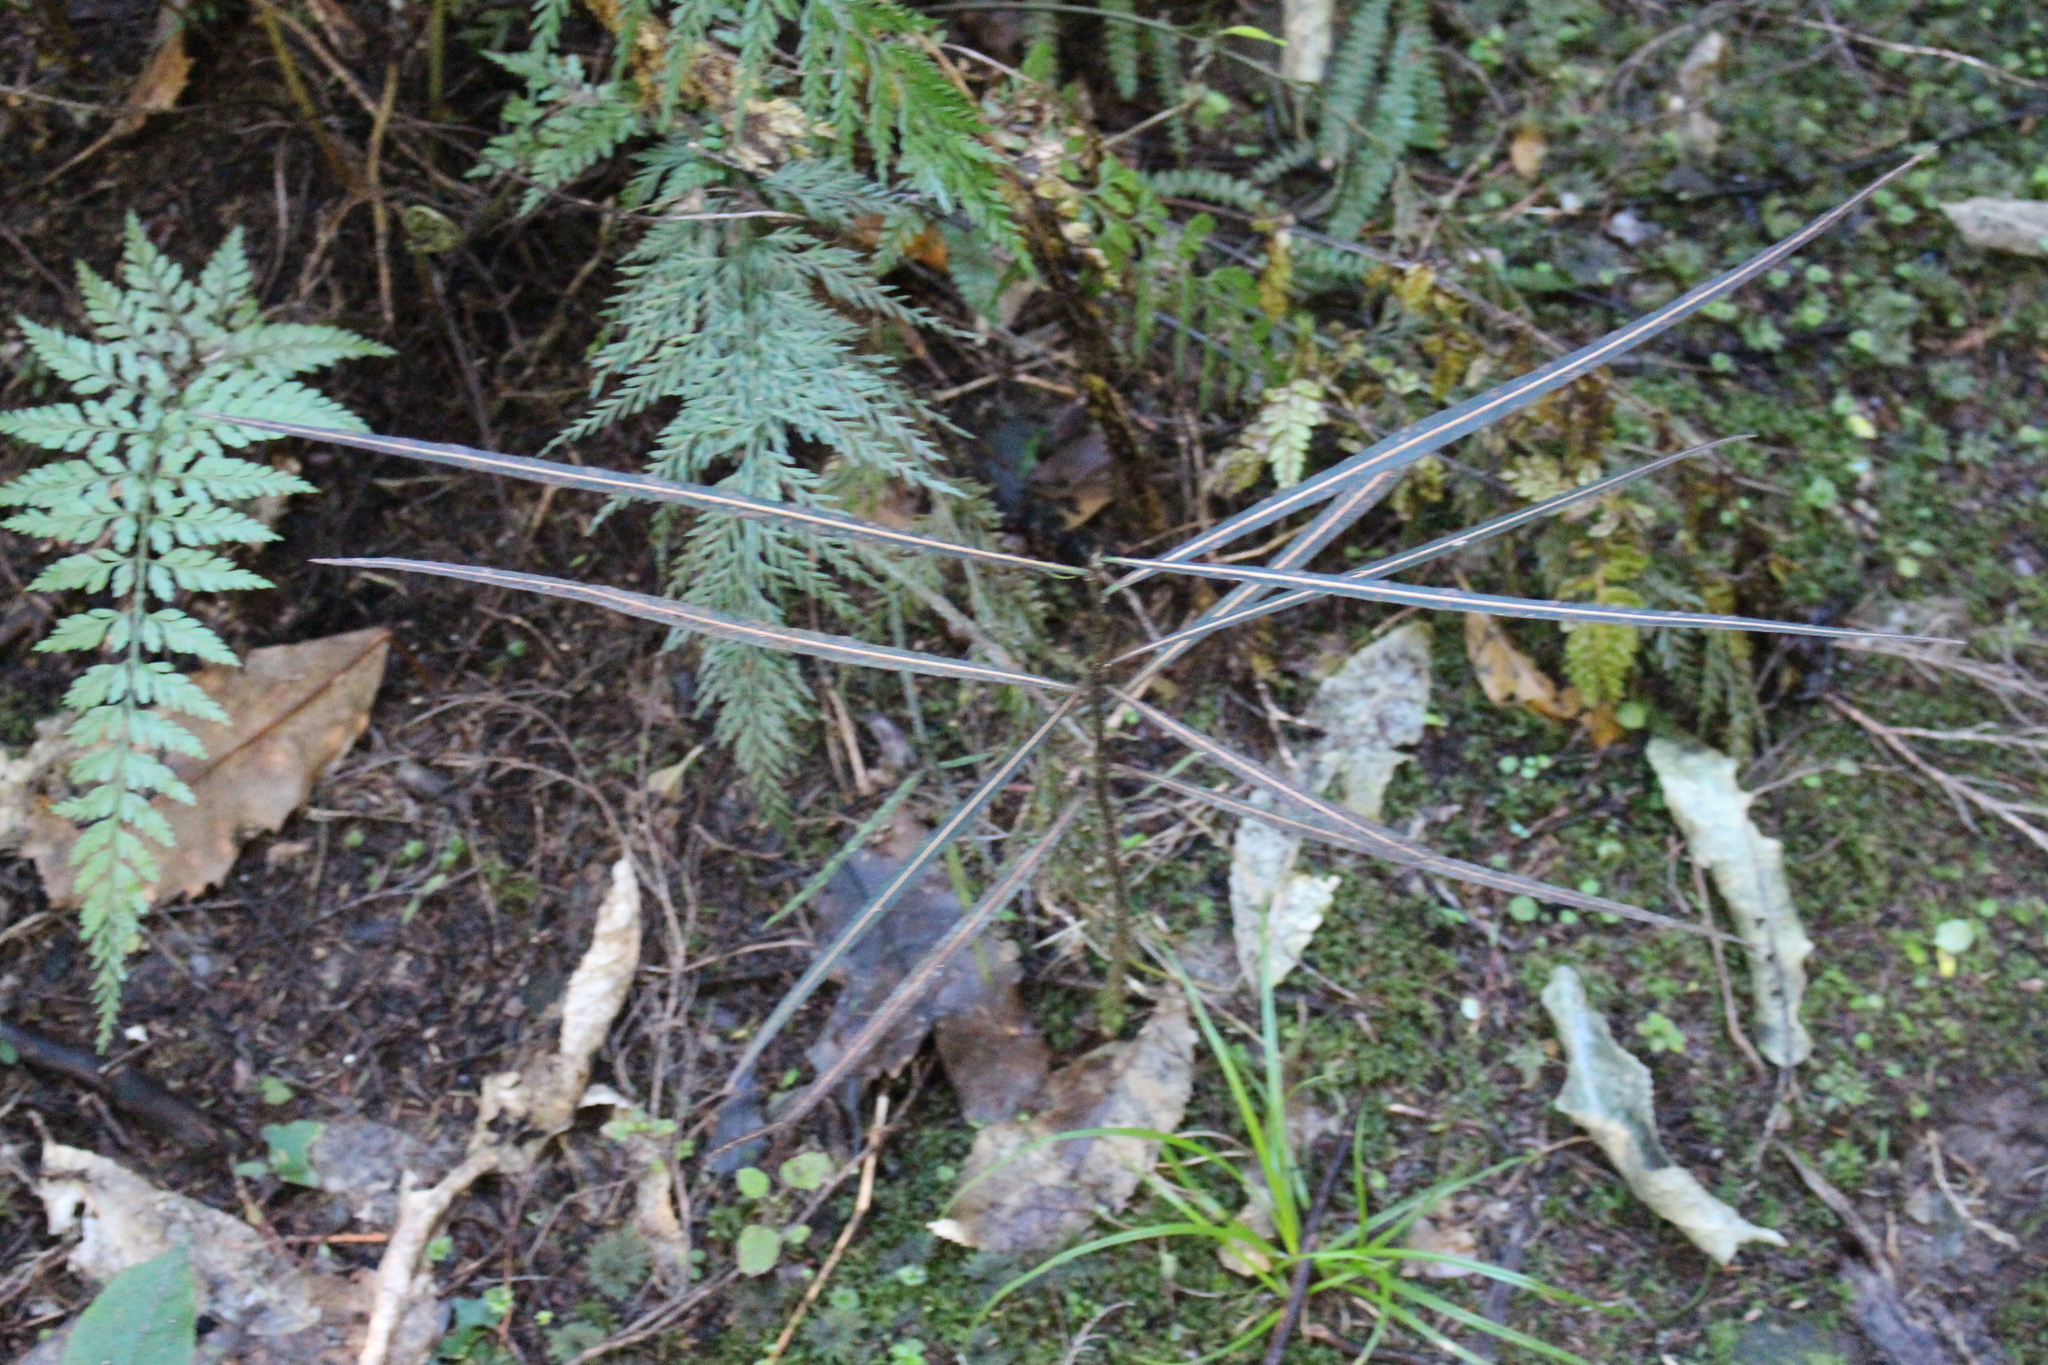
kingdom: Plantae
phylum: Tracheophyta
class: Magnoliopsida
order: Apiales
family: Araliaceae
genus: Pseudopanax
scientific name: Pseudopanax crassifolius
